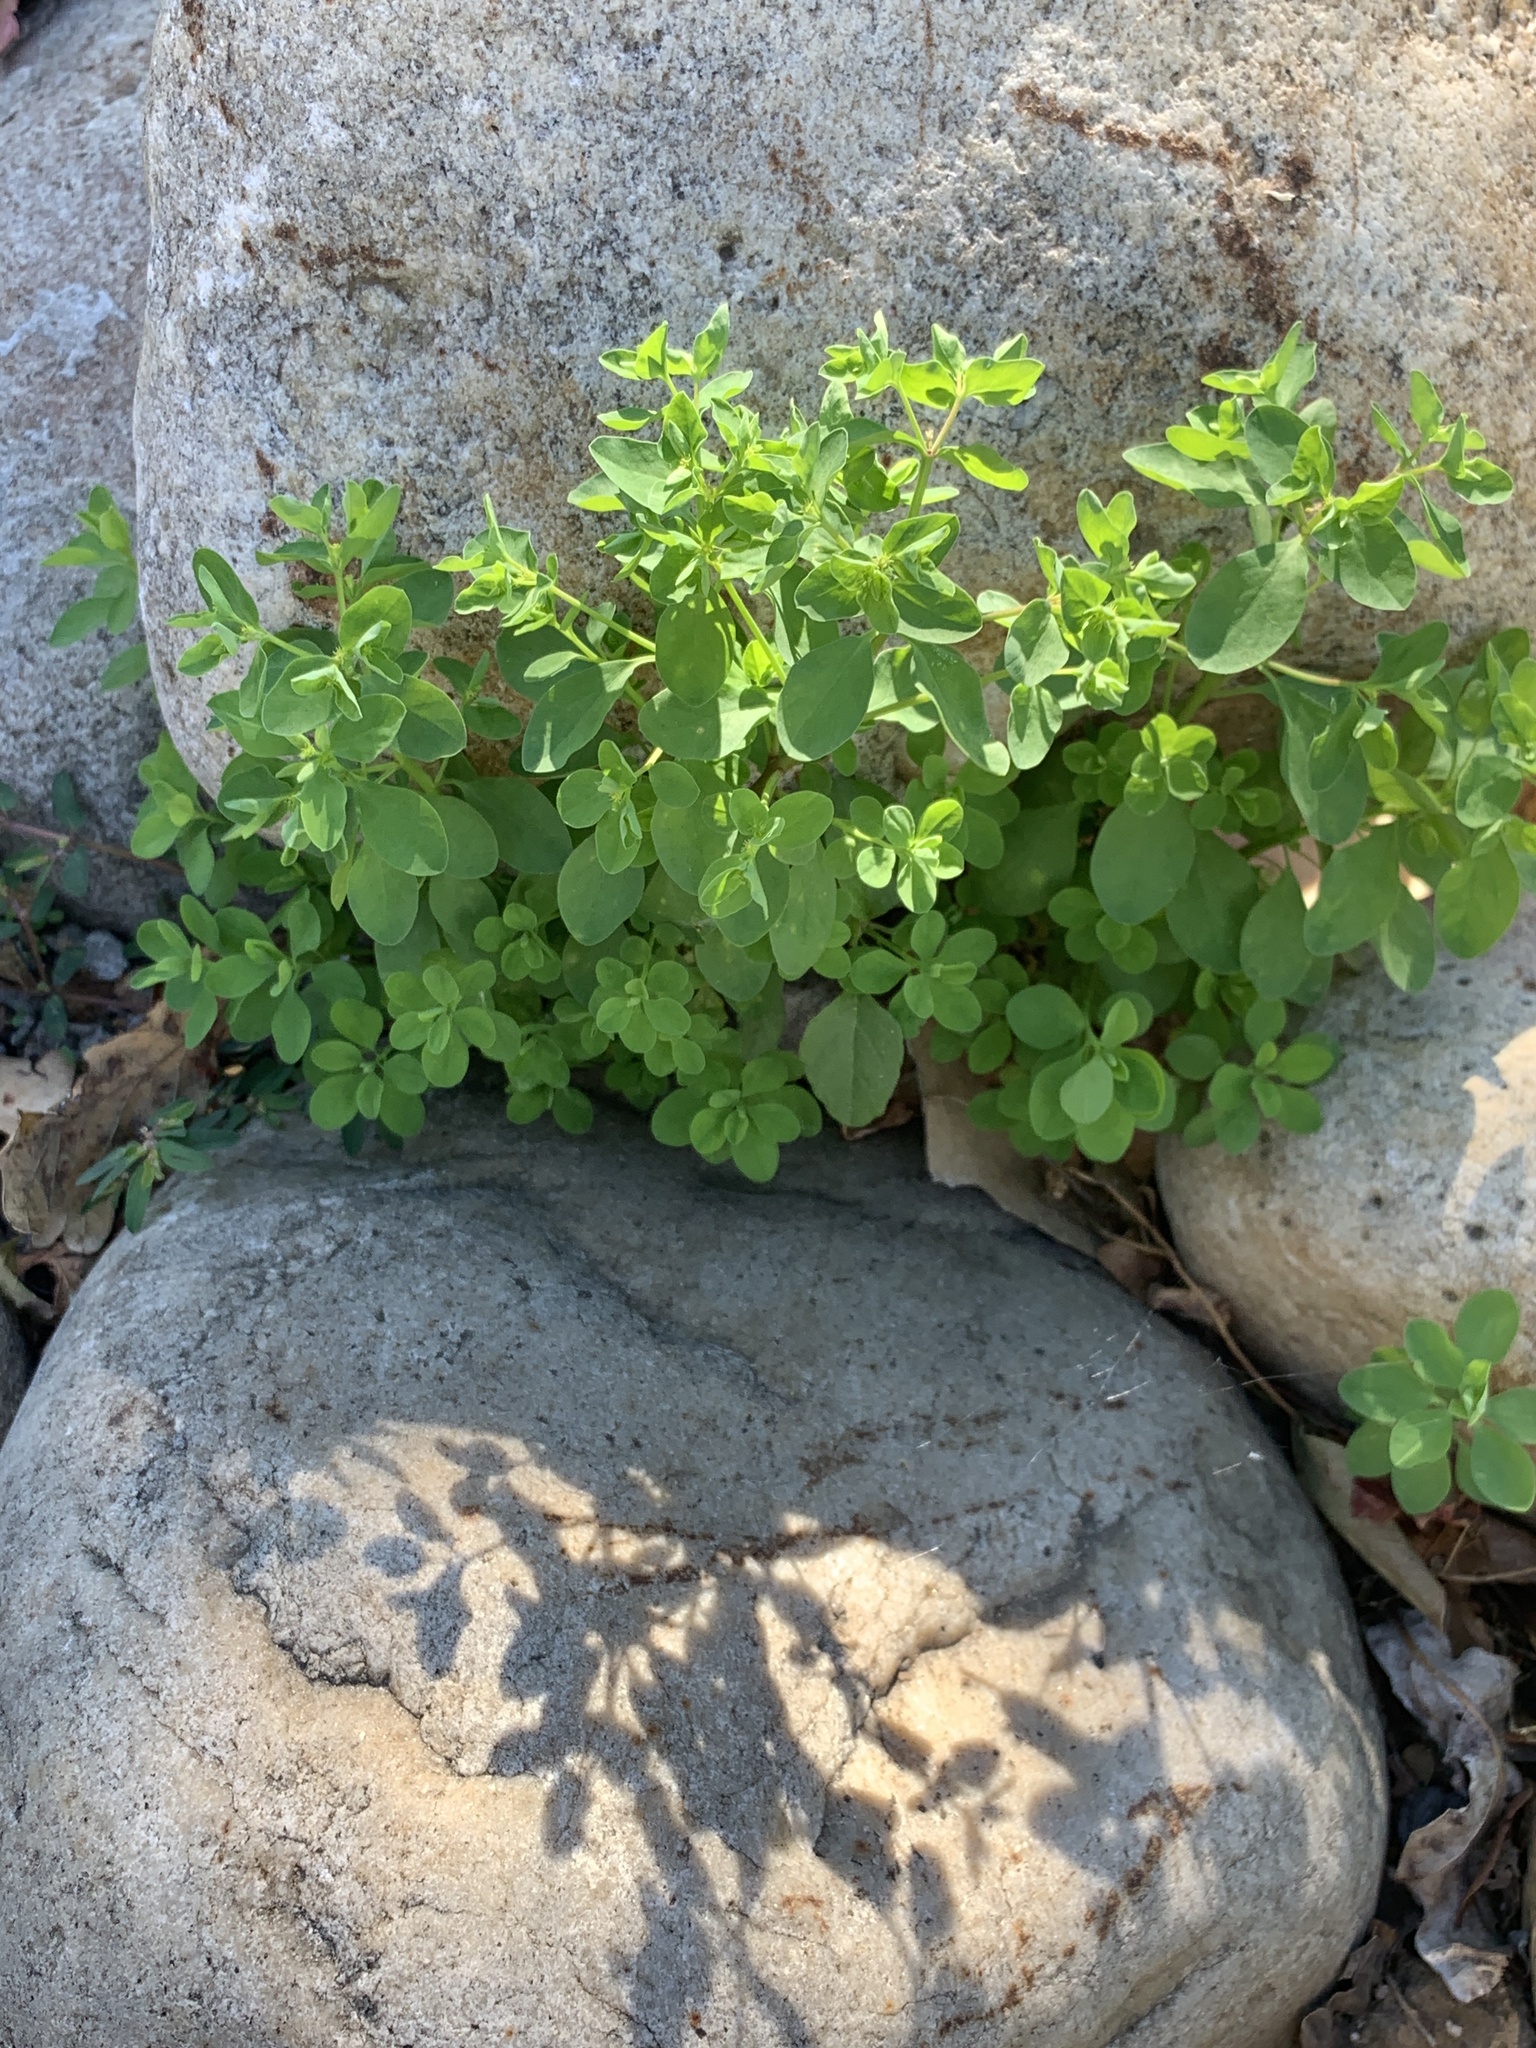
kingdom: Plantae
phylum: Tracheophyta
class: Magnoliopsida
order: Malpighiales
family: Euphorbiaceae
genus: Euphorbia
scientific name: Euphorbia peplus
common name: Petty spurge
